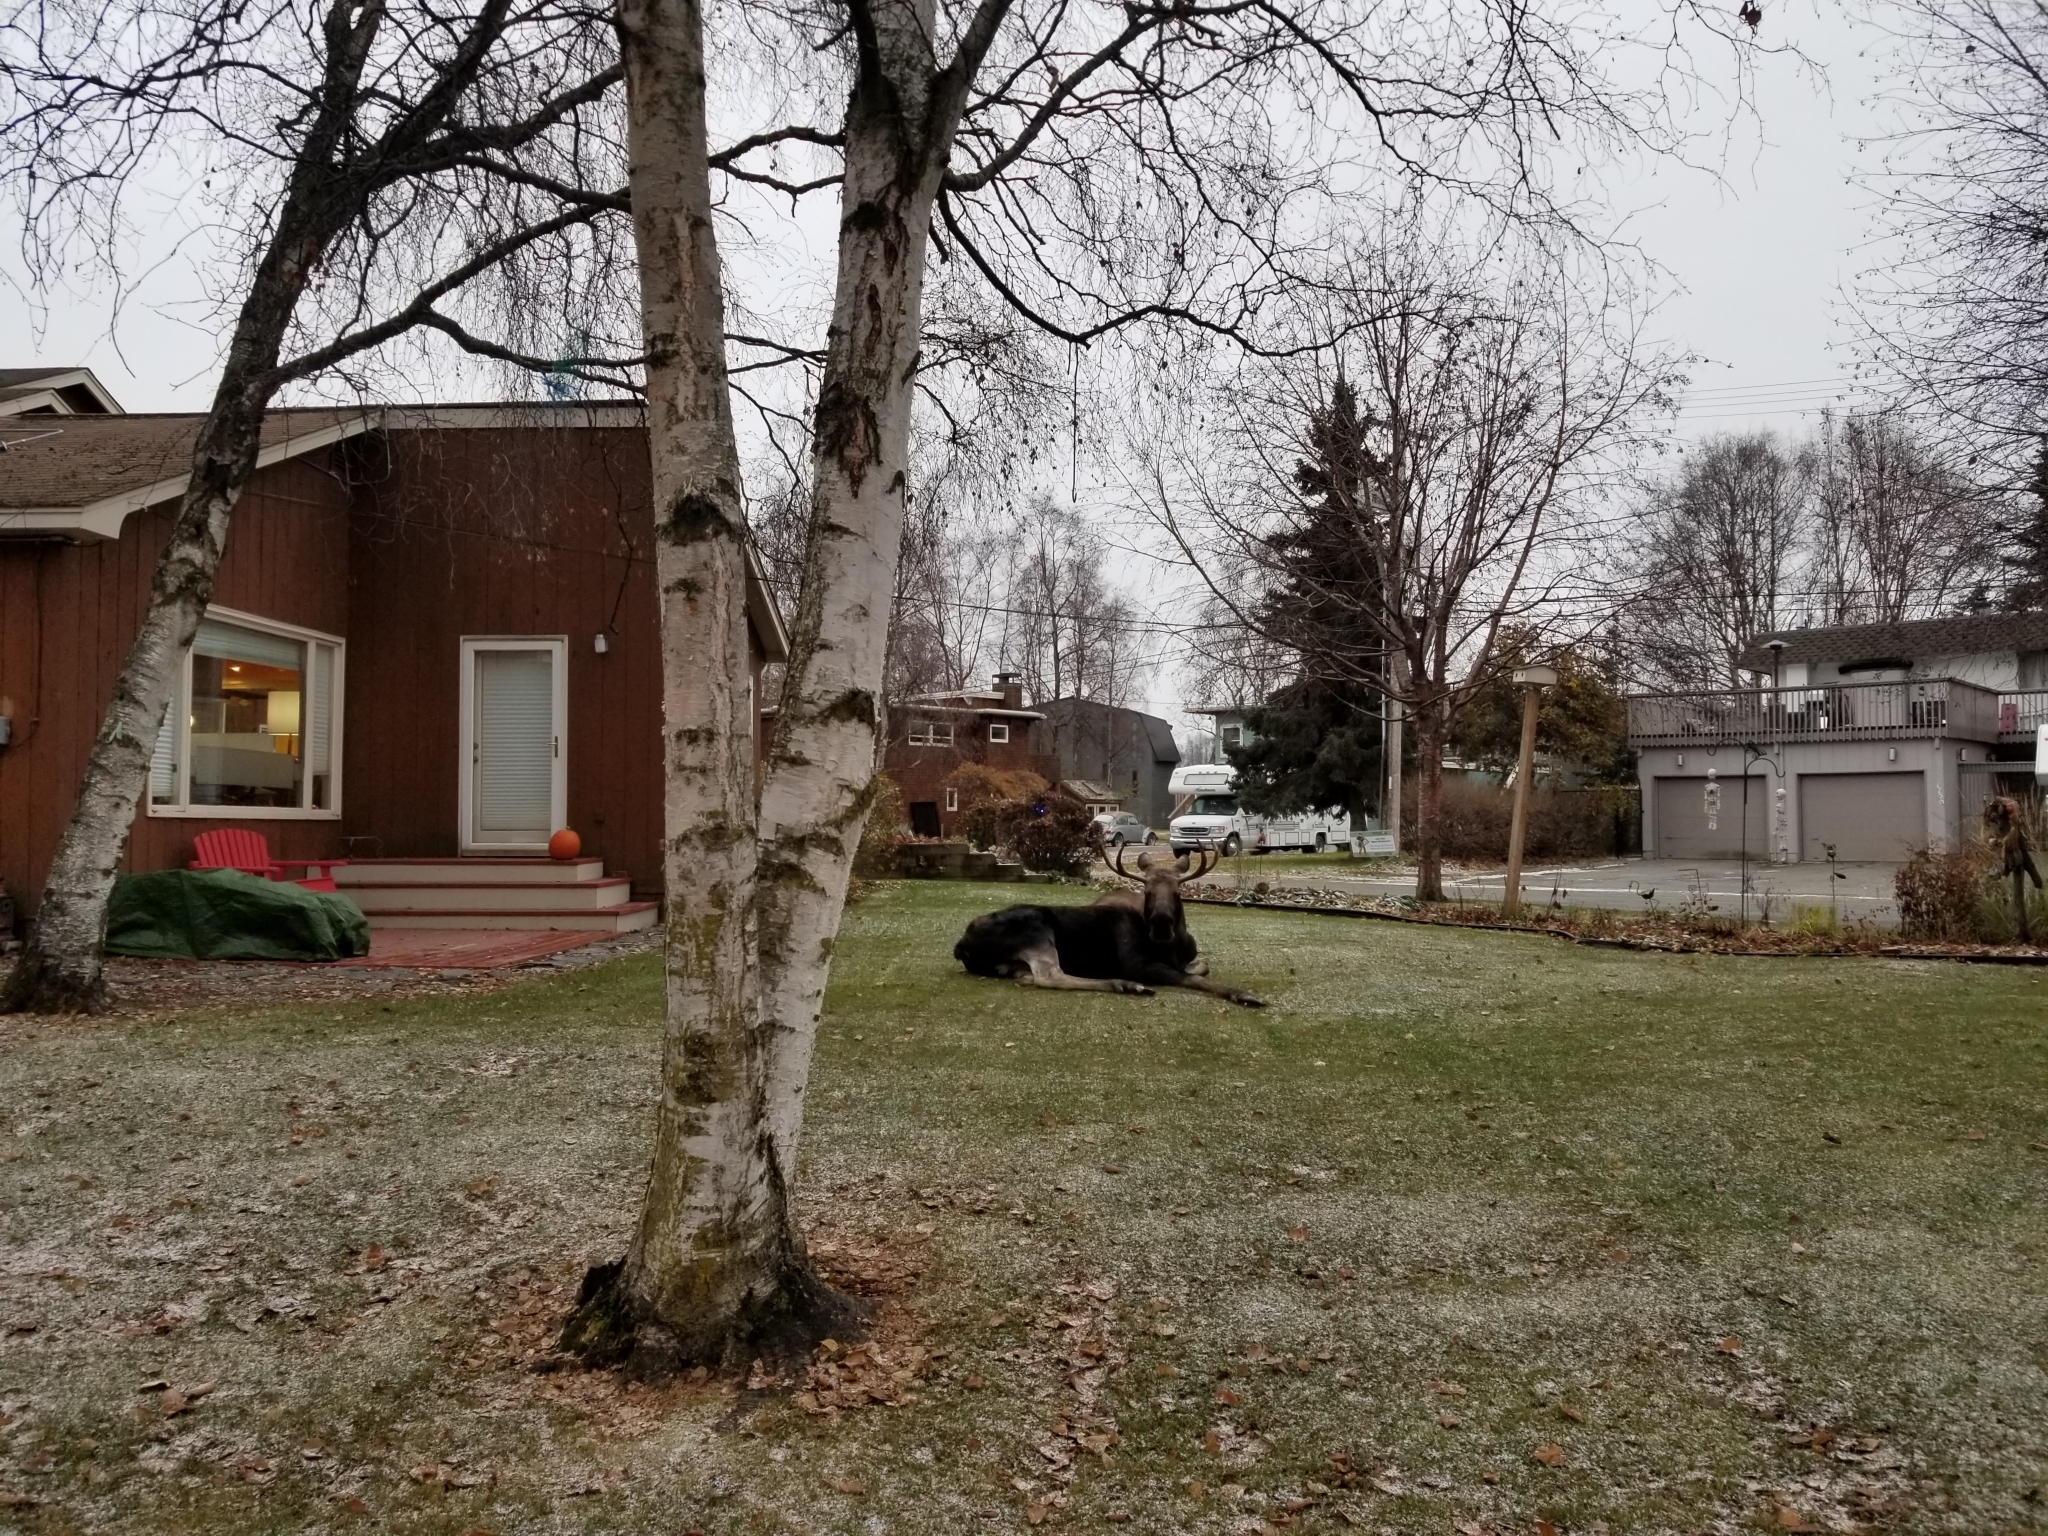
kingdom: Animalia
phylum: Chordata
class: Mammalia
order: Artiodactyla
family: Cervidae
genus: Alces
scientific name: Alces alces
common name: Moose
